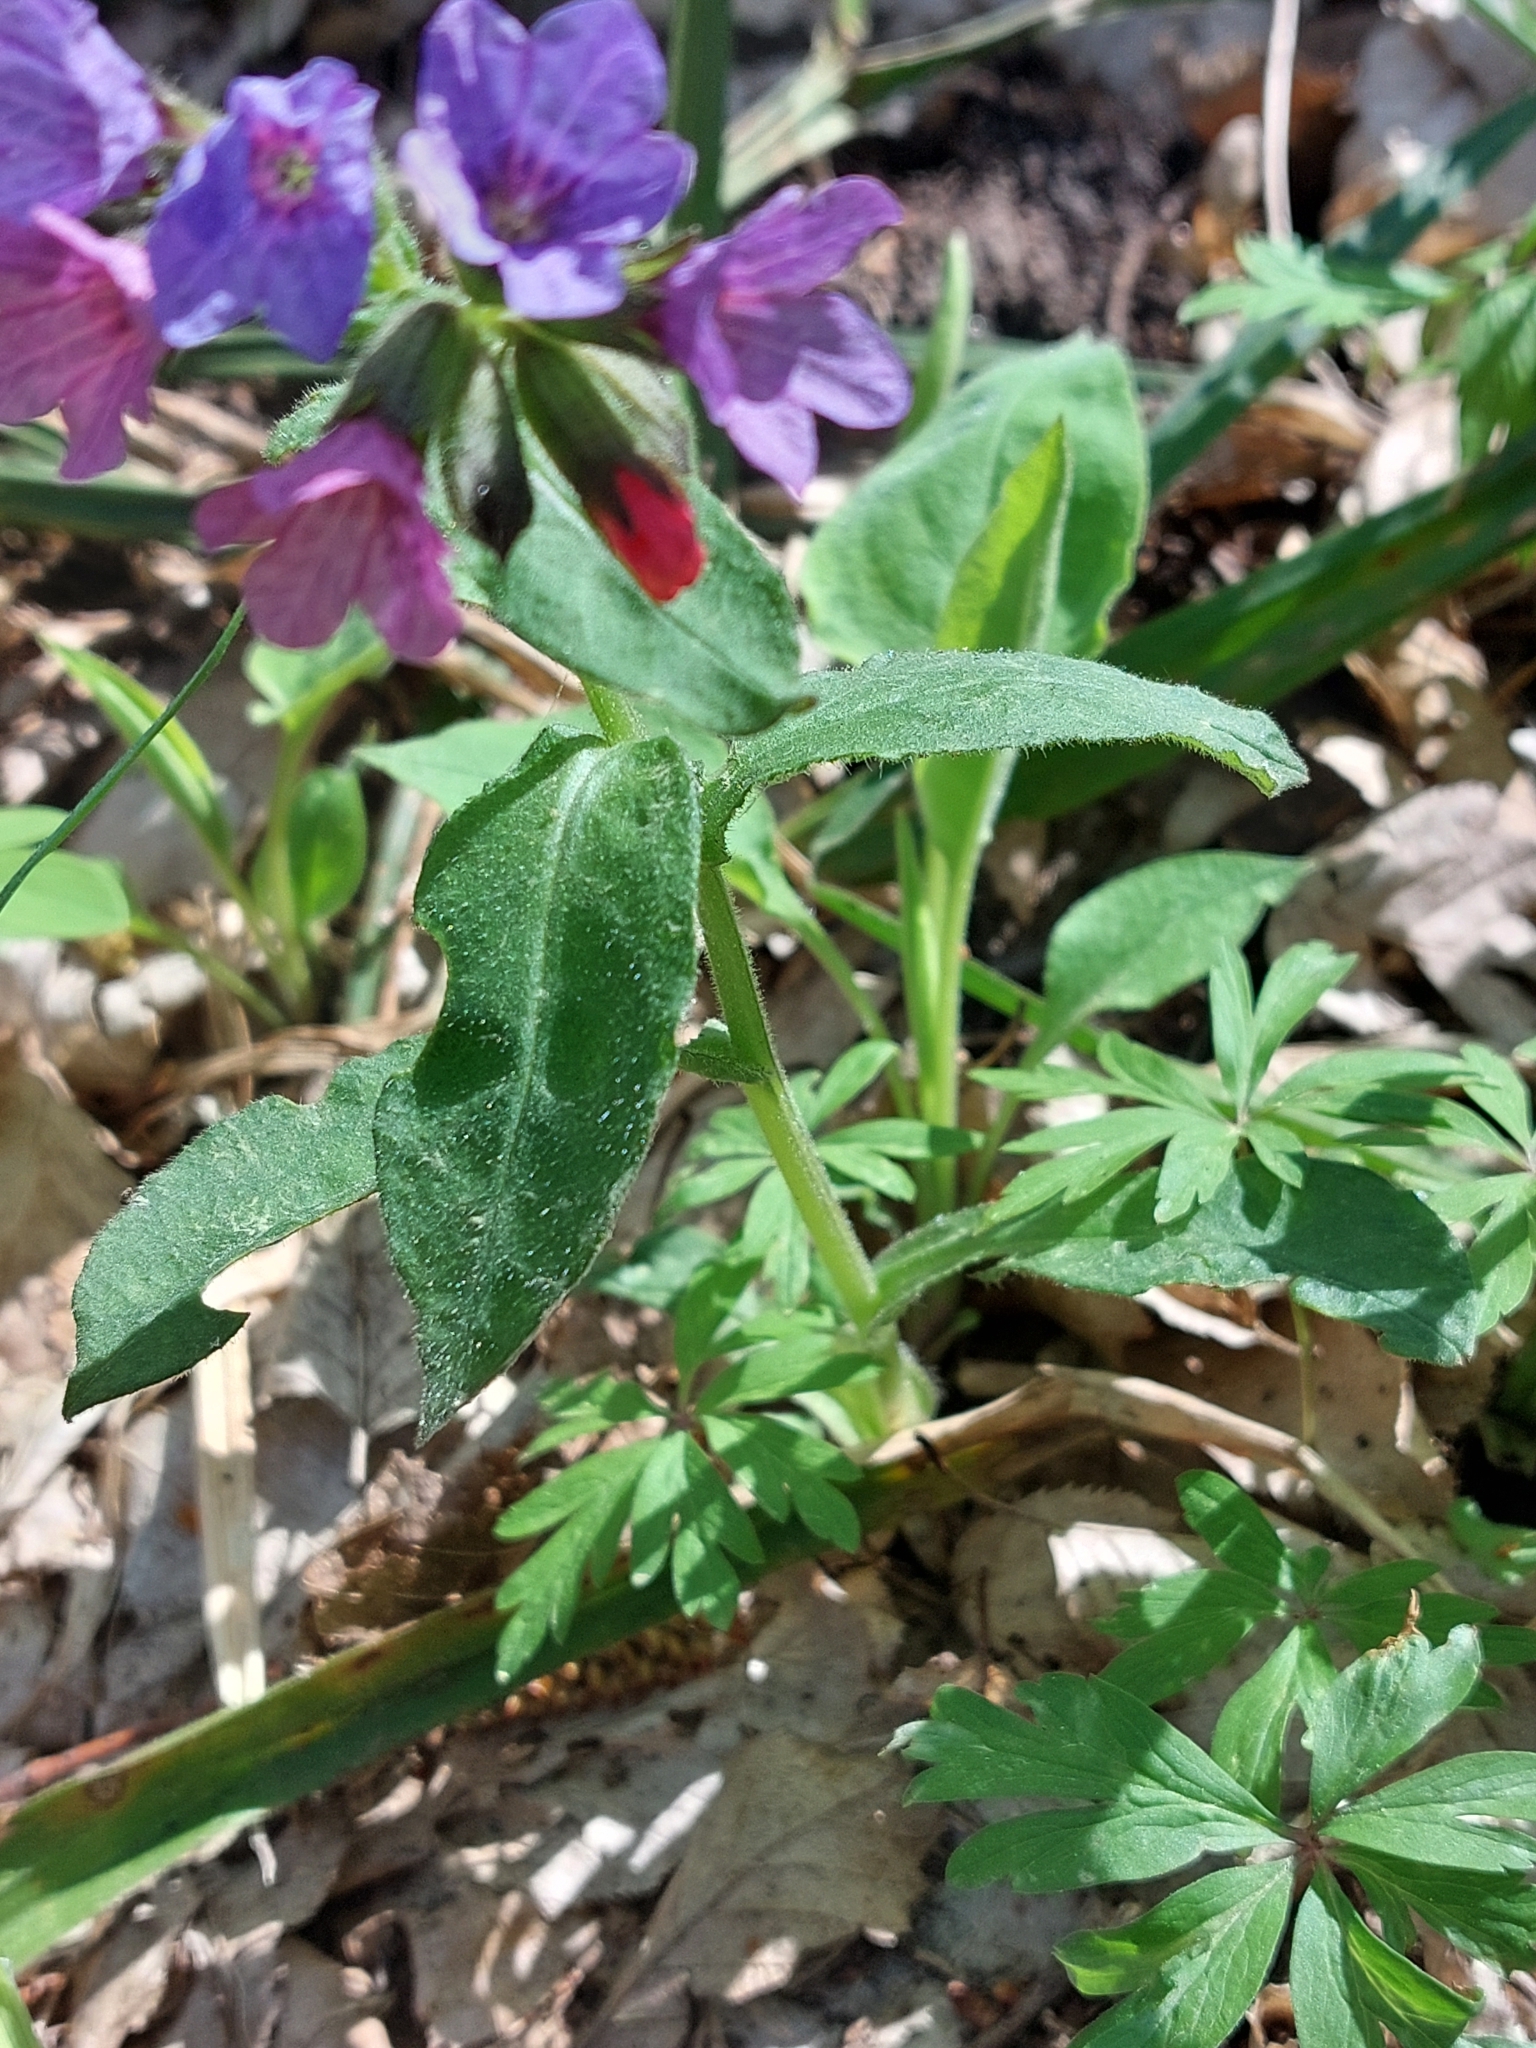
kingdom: Plantae
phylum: Tracheophyta
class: Magnoliopsida
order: Boraginales
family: Boraginaceae
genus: Pulmonaria
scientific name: Pulmonaria obscura
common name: Suffolk lungwort
